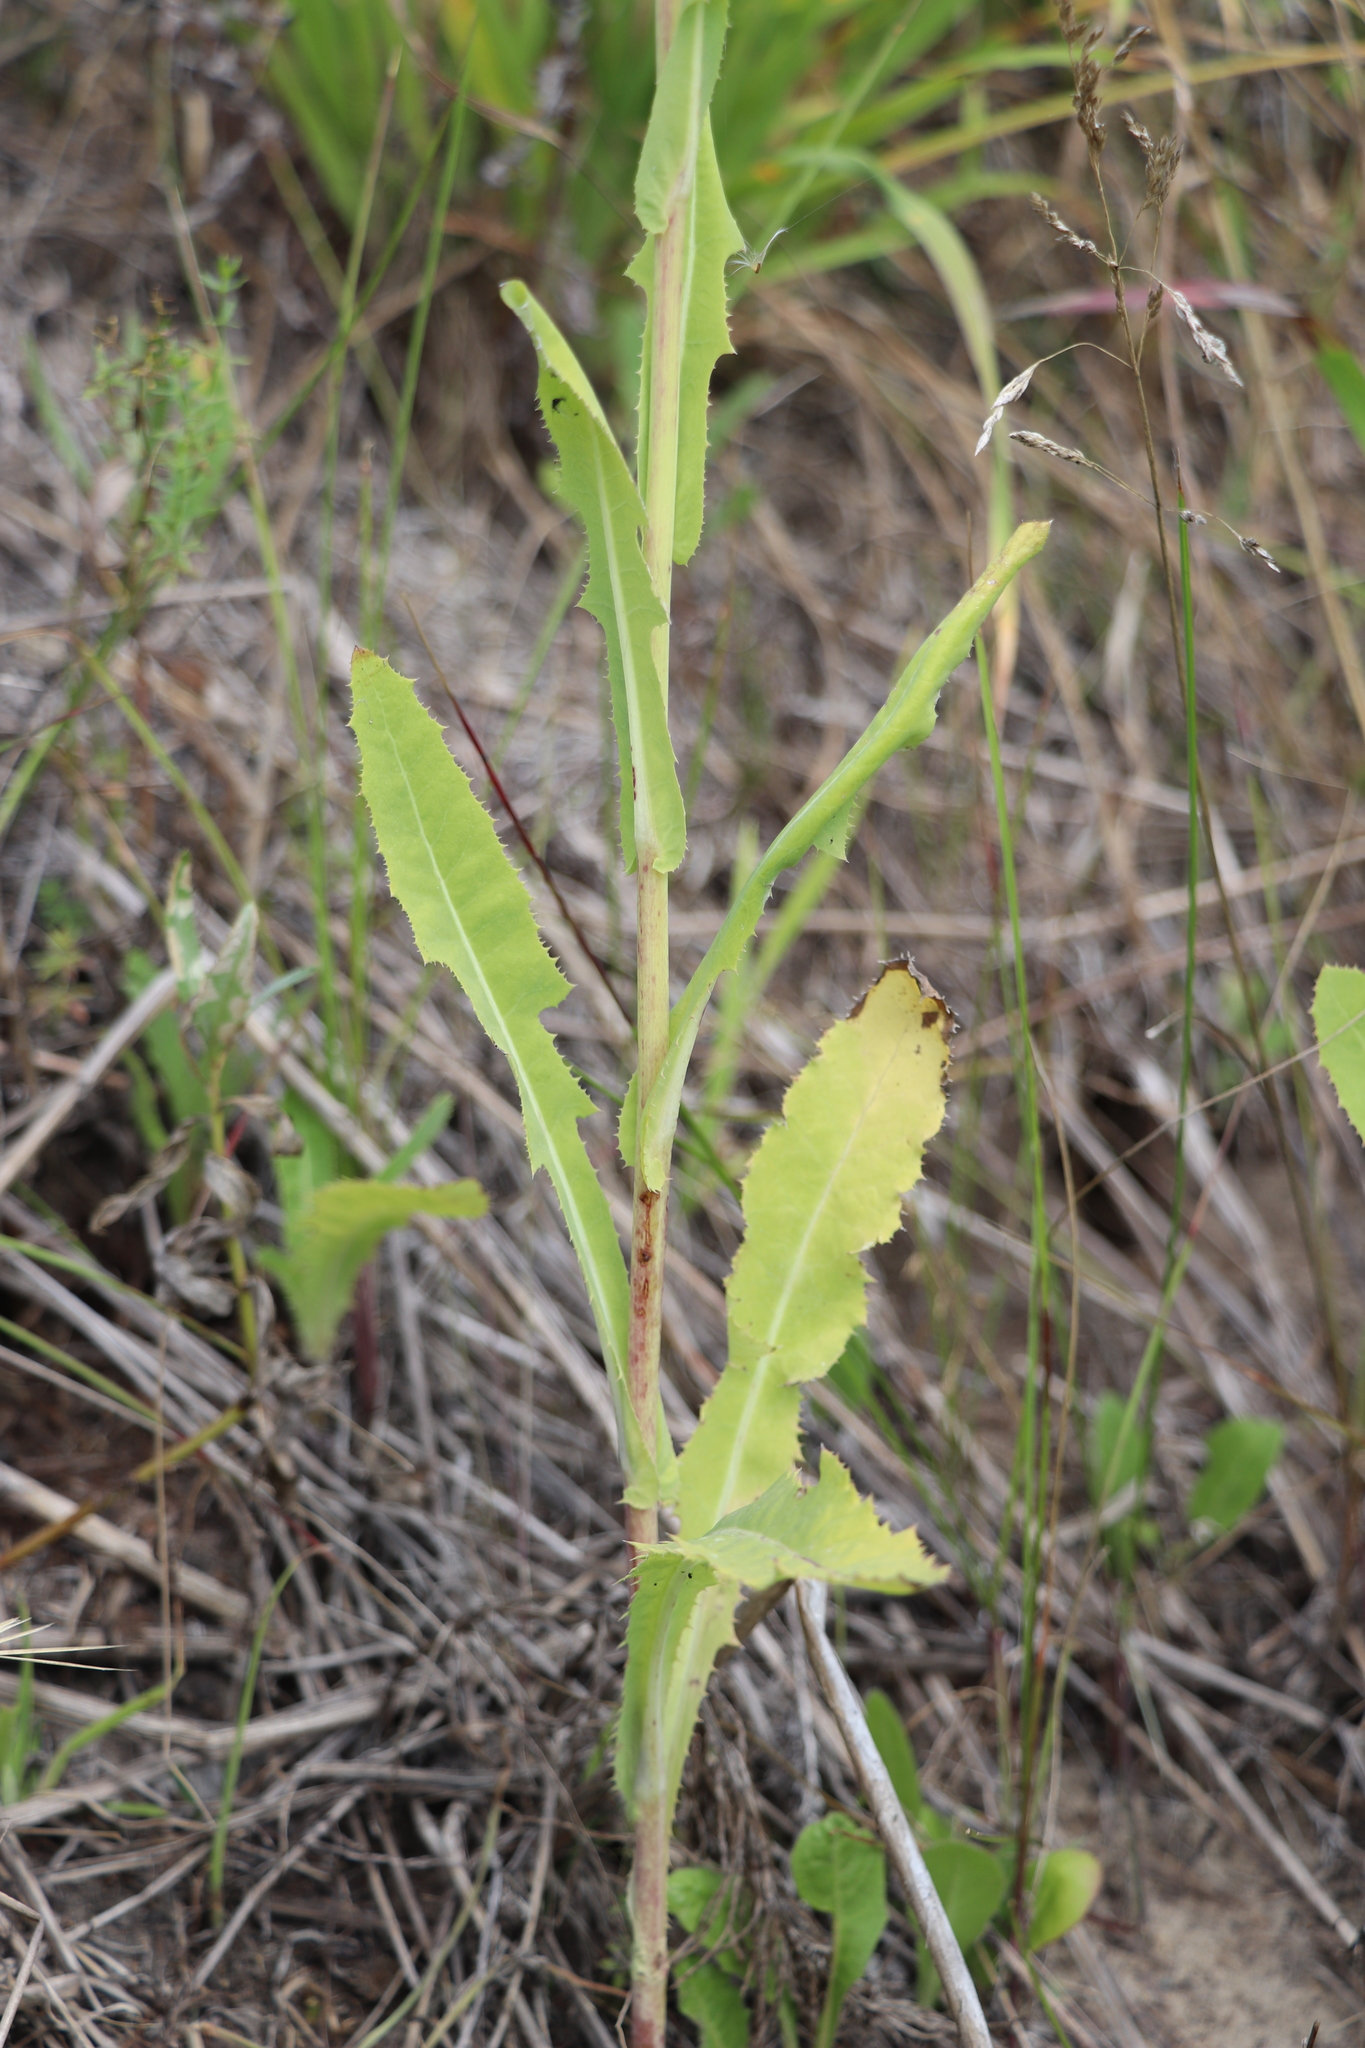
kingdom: Plantae
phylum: Tracheophyta
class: Magnoliopsida
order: Asterales
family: Asteraceae
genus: Sonchus
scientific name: Sonchus arvensis
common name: Perennial sow-thistle
